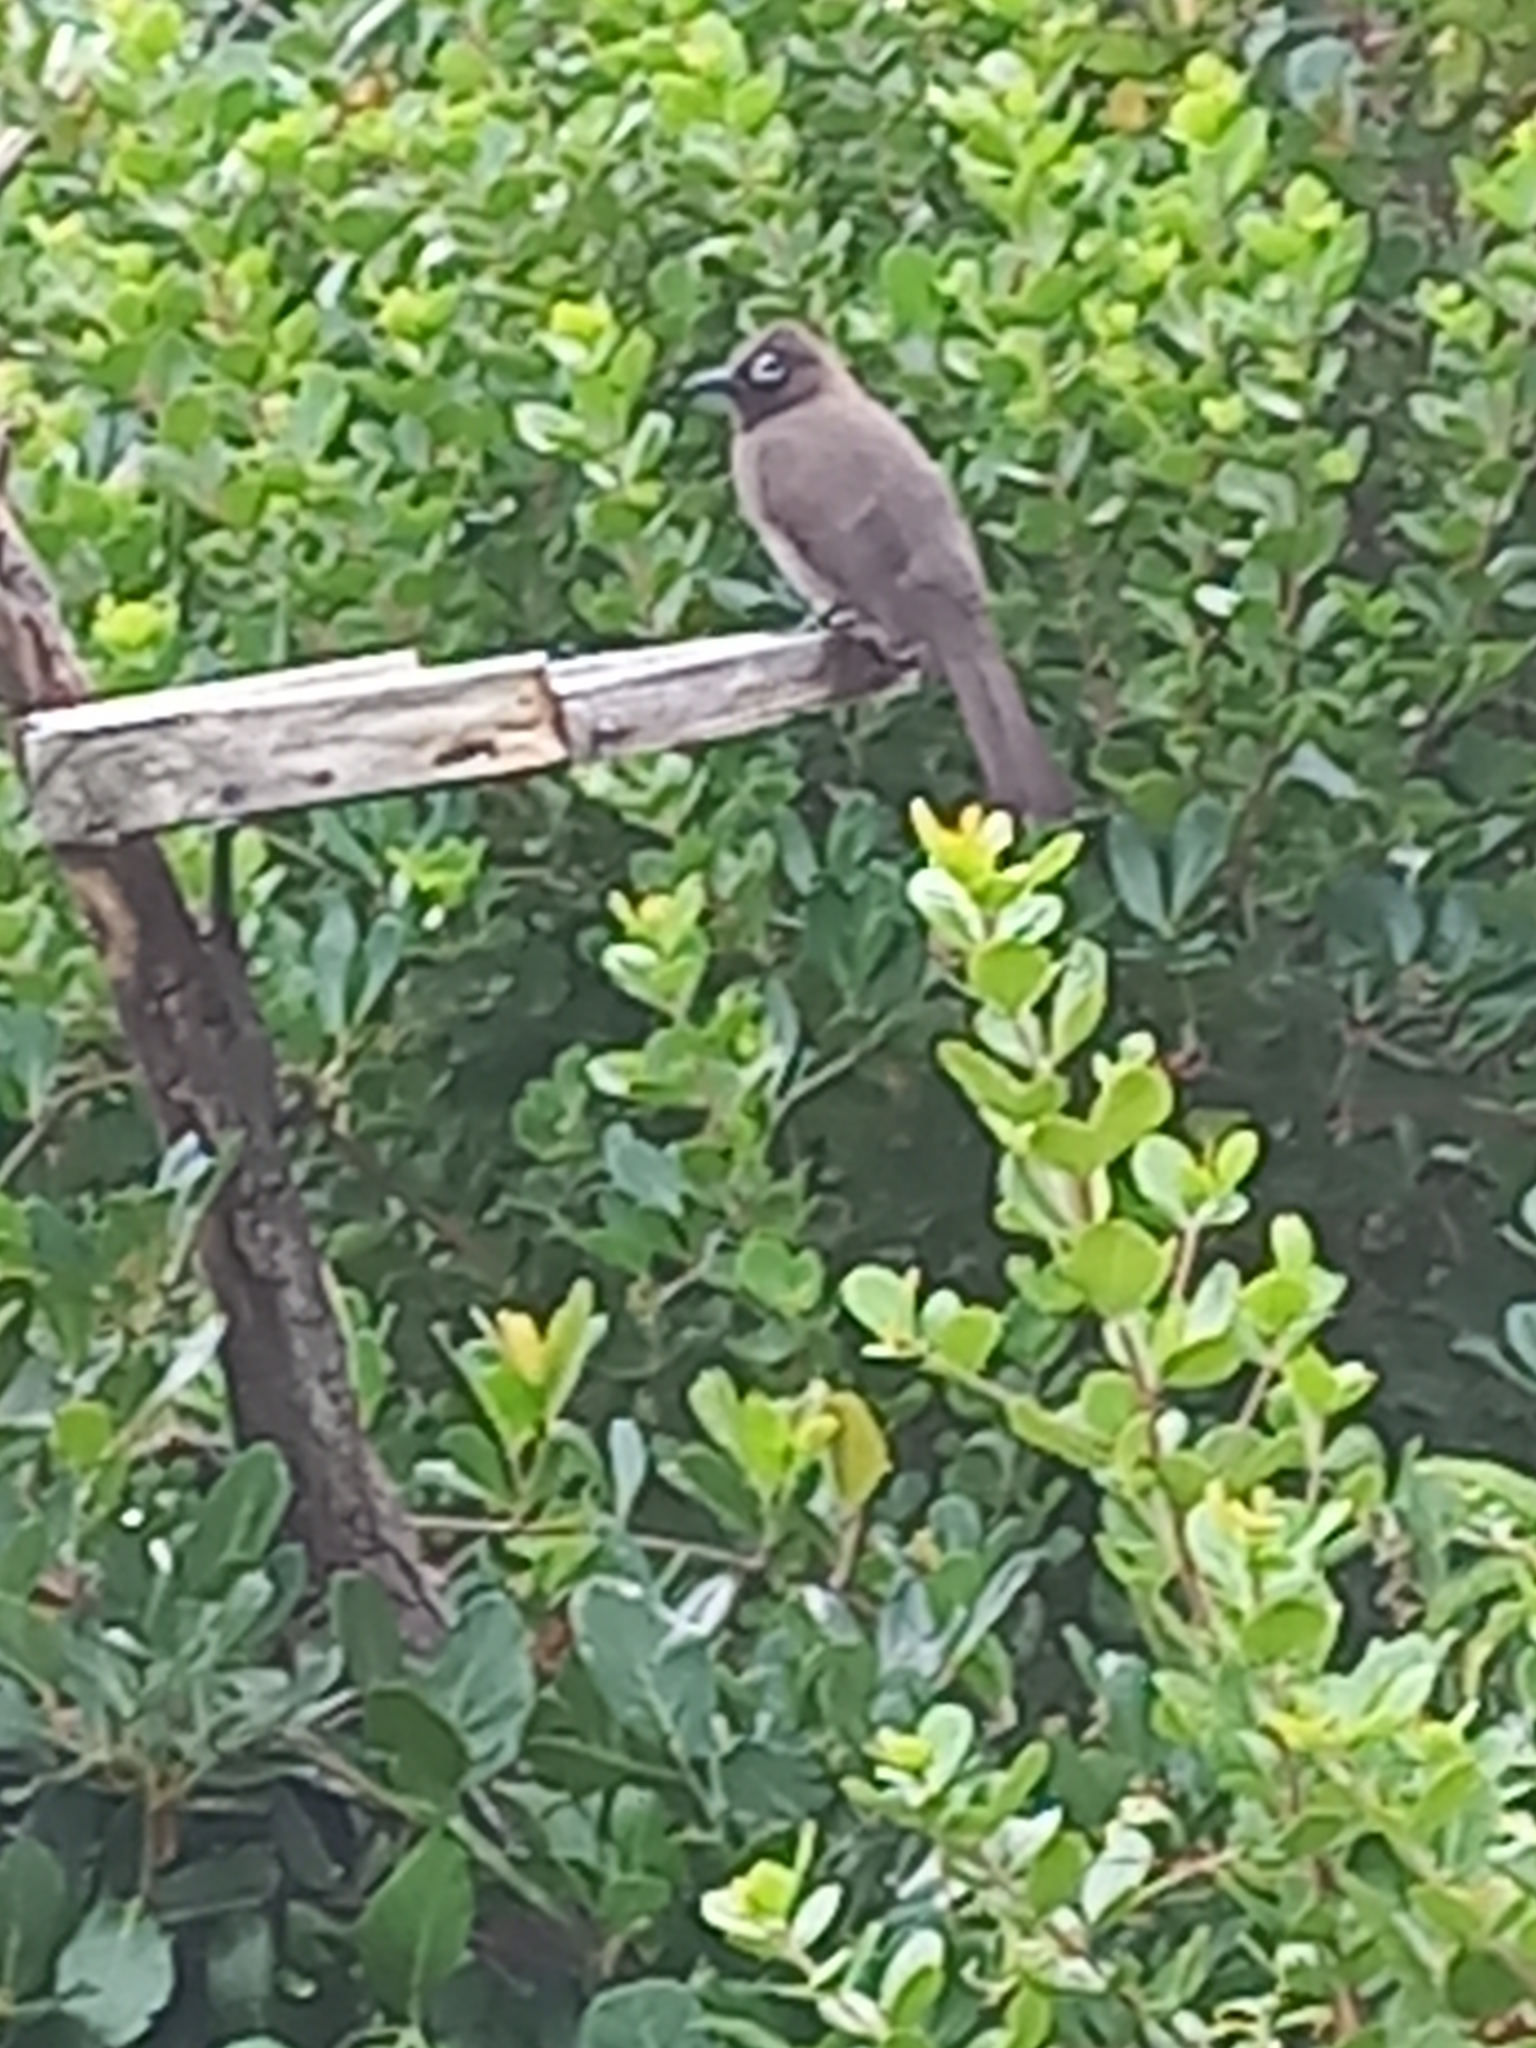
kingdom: Animalia
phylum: Chordata
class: Aves
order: Passeriformes
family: Pycnonotidae
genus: Pycnonotus
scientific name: Pycnonotus capensis
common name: Cape bulbul
